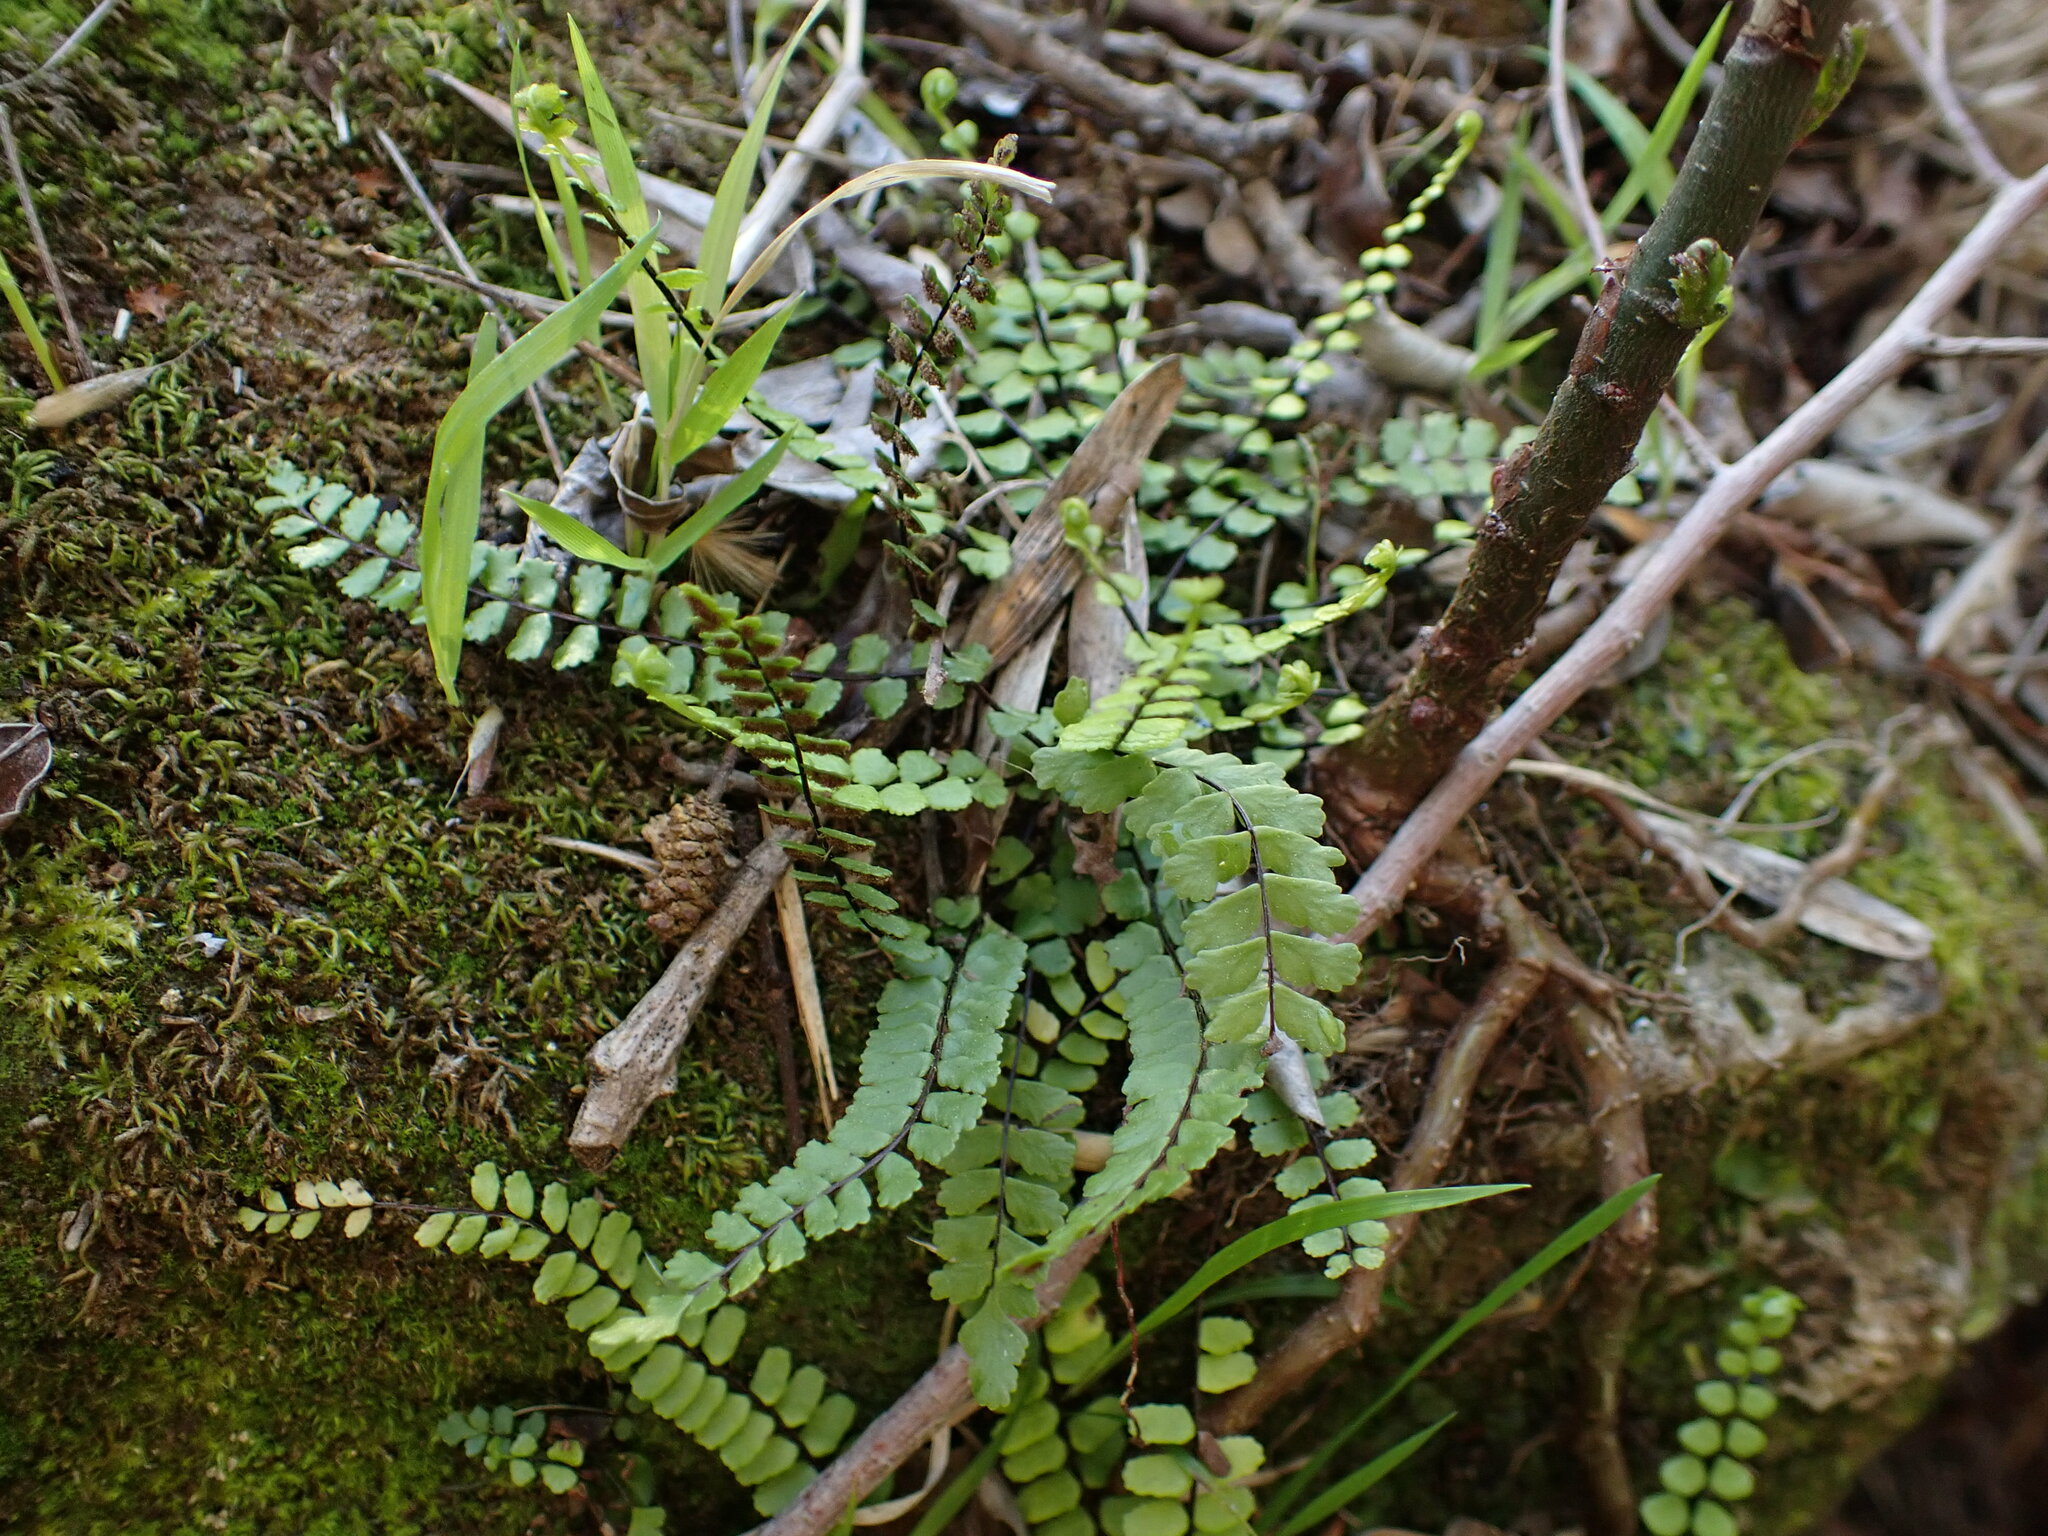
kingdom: Plantae
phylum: Tracheophyta
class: Polypodiopsida
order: Polypodiales
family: Aspleniaceae
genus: Asplenium
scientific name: Asplenium trichomanes
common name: Maidenhair spleenwort
